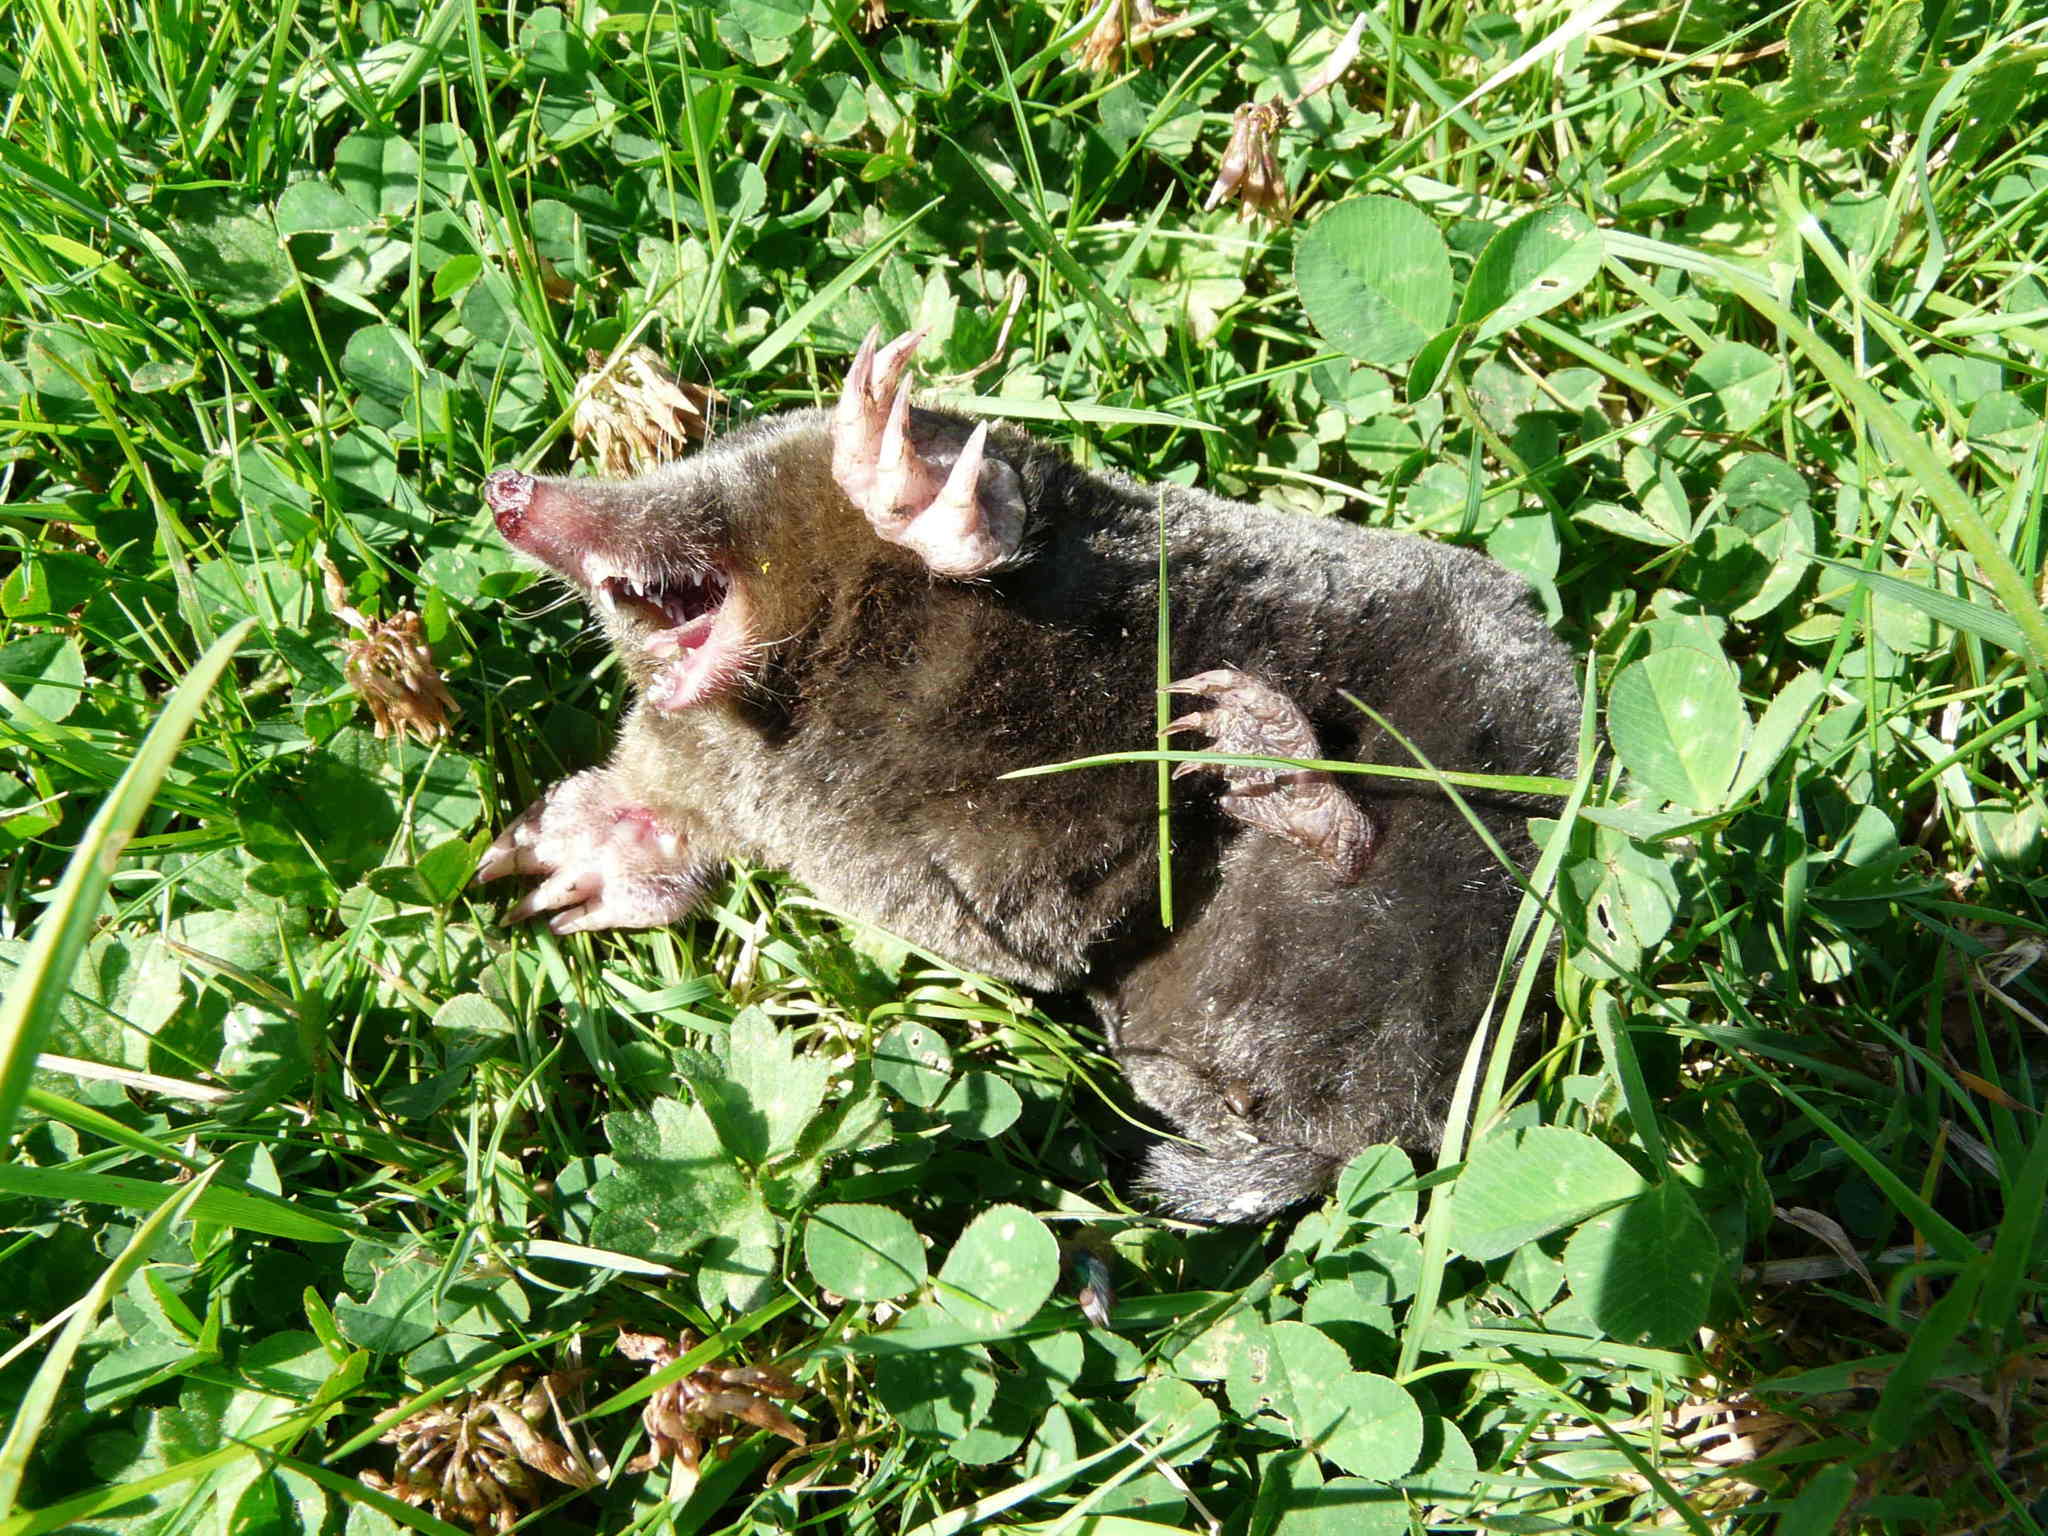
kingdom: Animalia
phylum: Chordata
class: Mammalia
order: Soricomorpha
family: Talpidae
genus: Talpa
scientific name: Talpa europaea
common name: European mole
